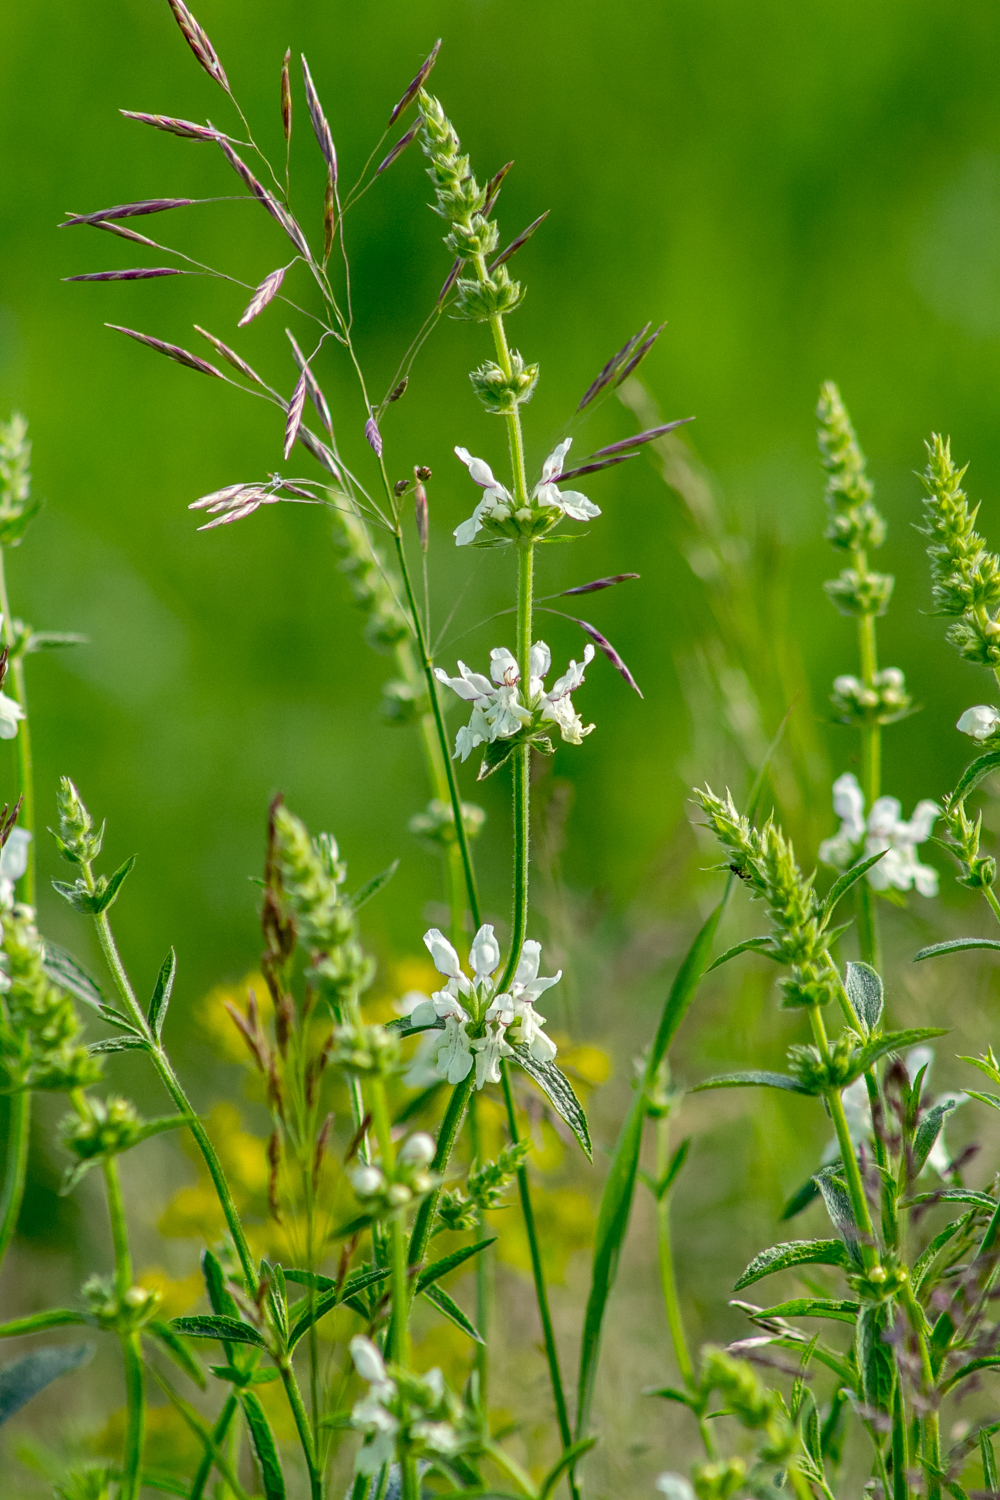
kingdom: Plantae
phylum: Tracheophyta
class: Magnoliopsida
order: Lamiales
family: Lamiaceae
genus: Stachys
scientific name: Stachys recta
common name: Perennial yellow-woundwort
